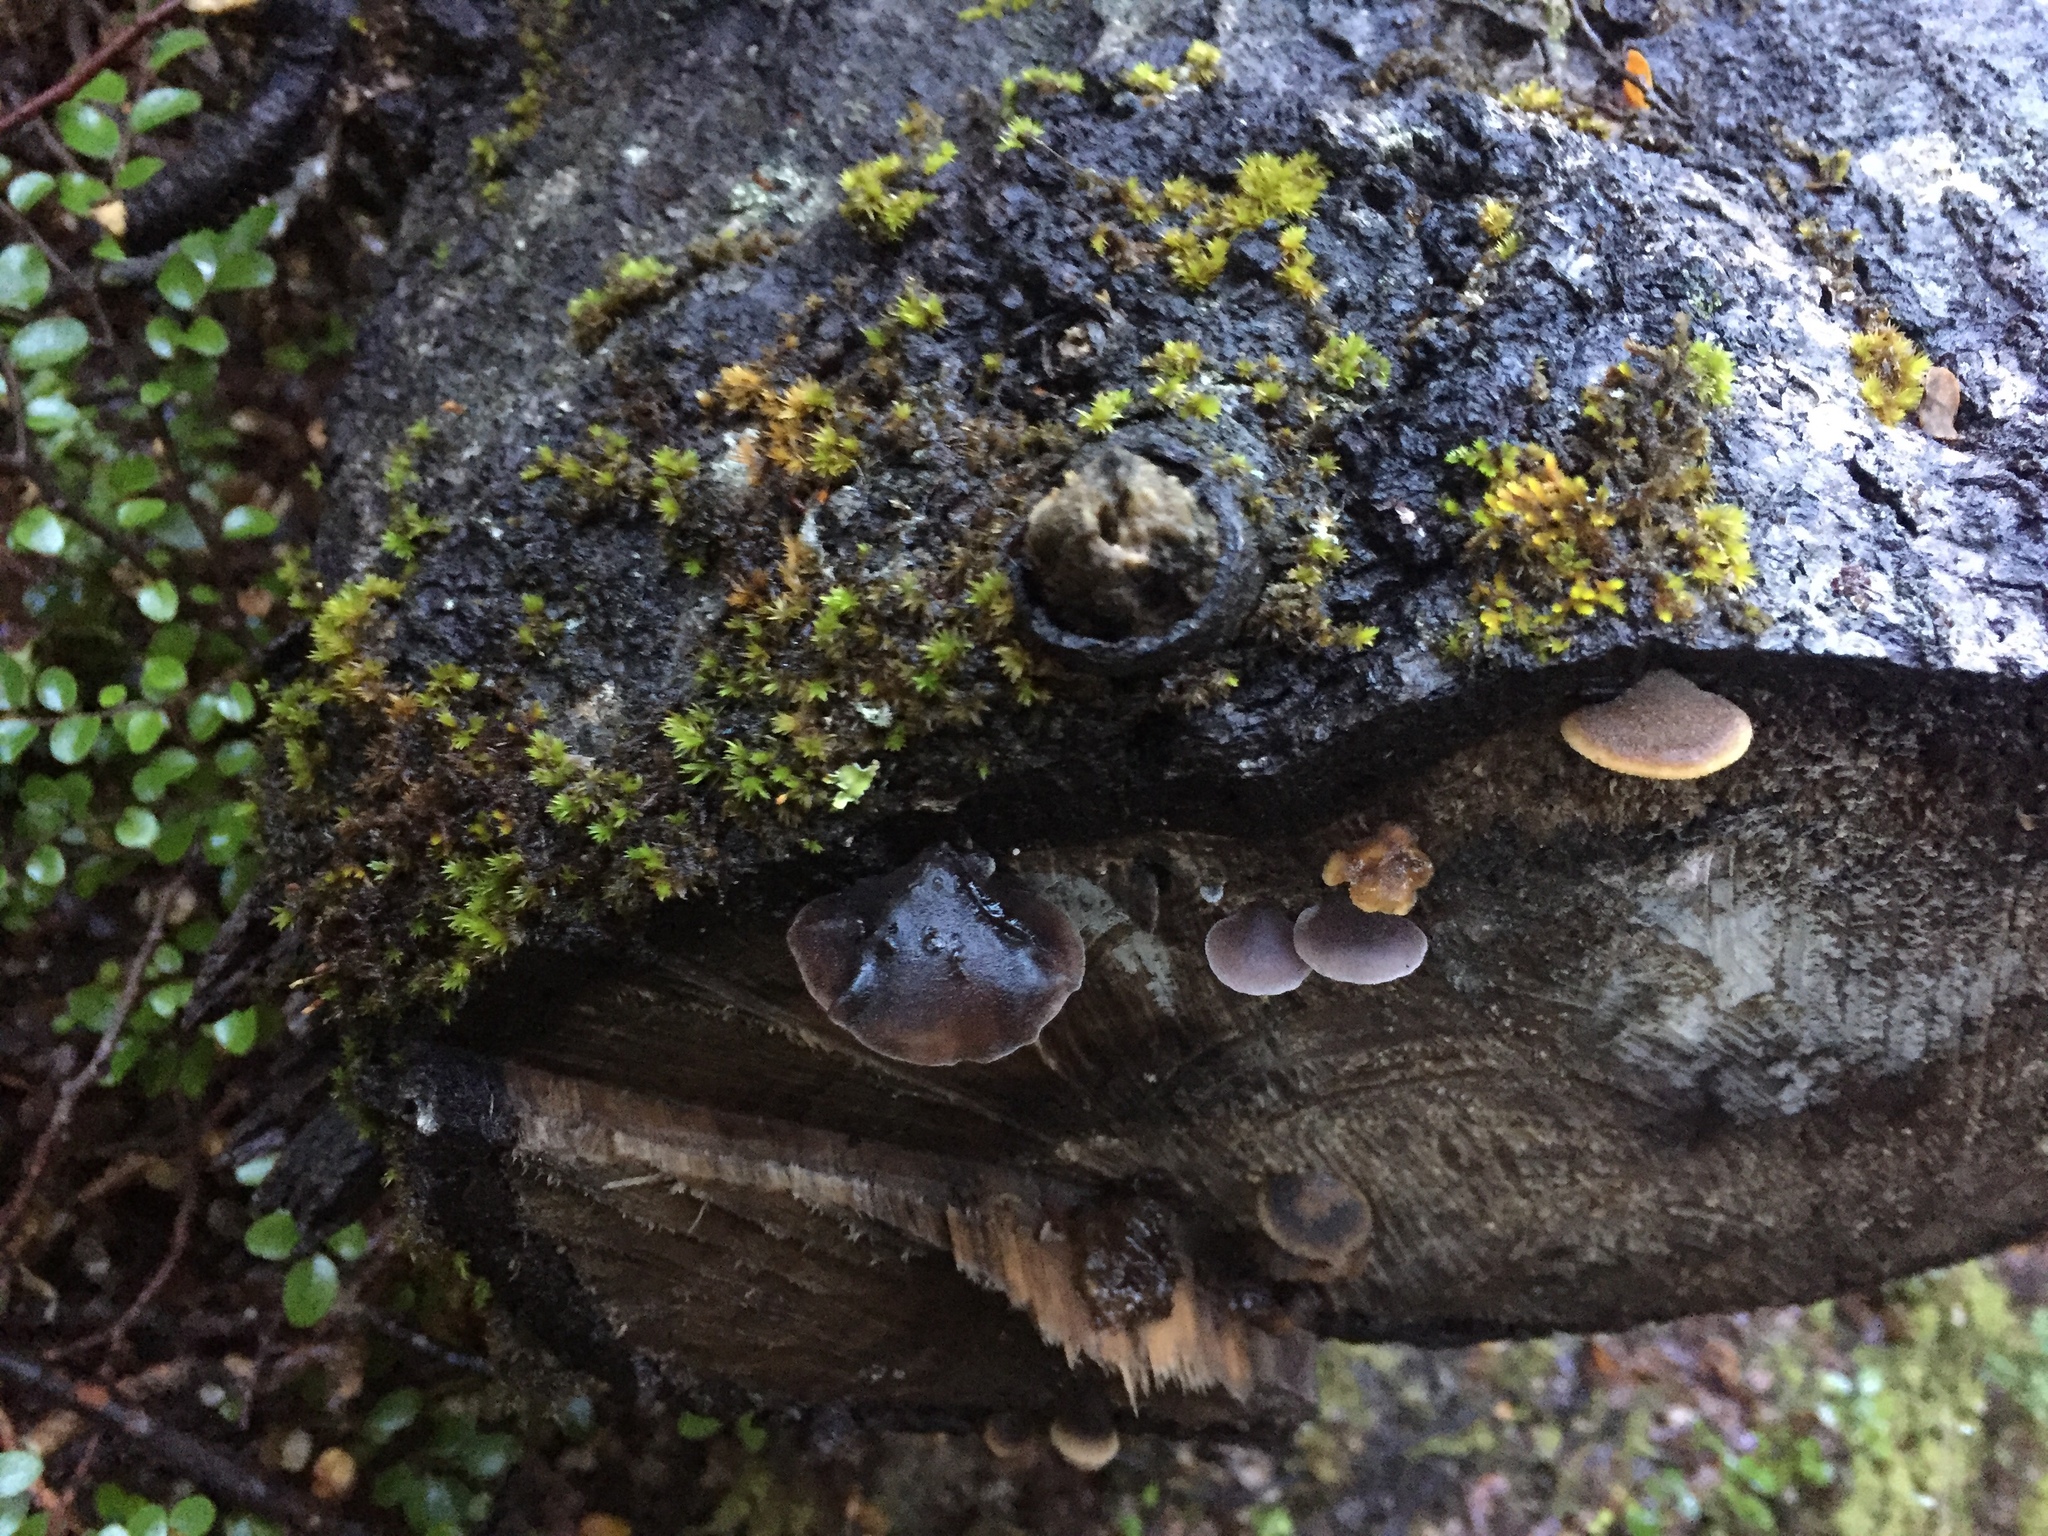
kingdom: Fungi
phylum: Basidiomycota
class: Agaricomycetes
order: Agaricales
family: Omphalotaceae
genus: Marasmiellus
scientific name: Marasmiellus violaceogriseus
